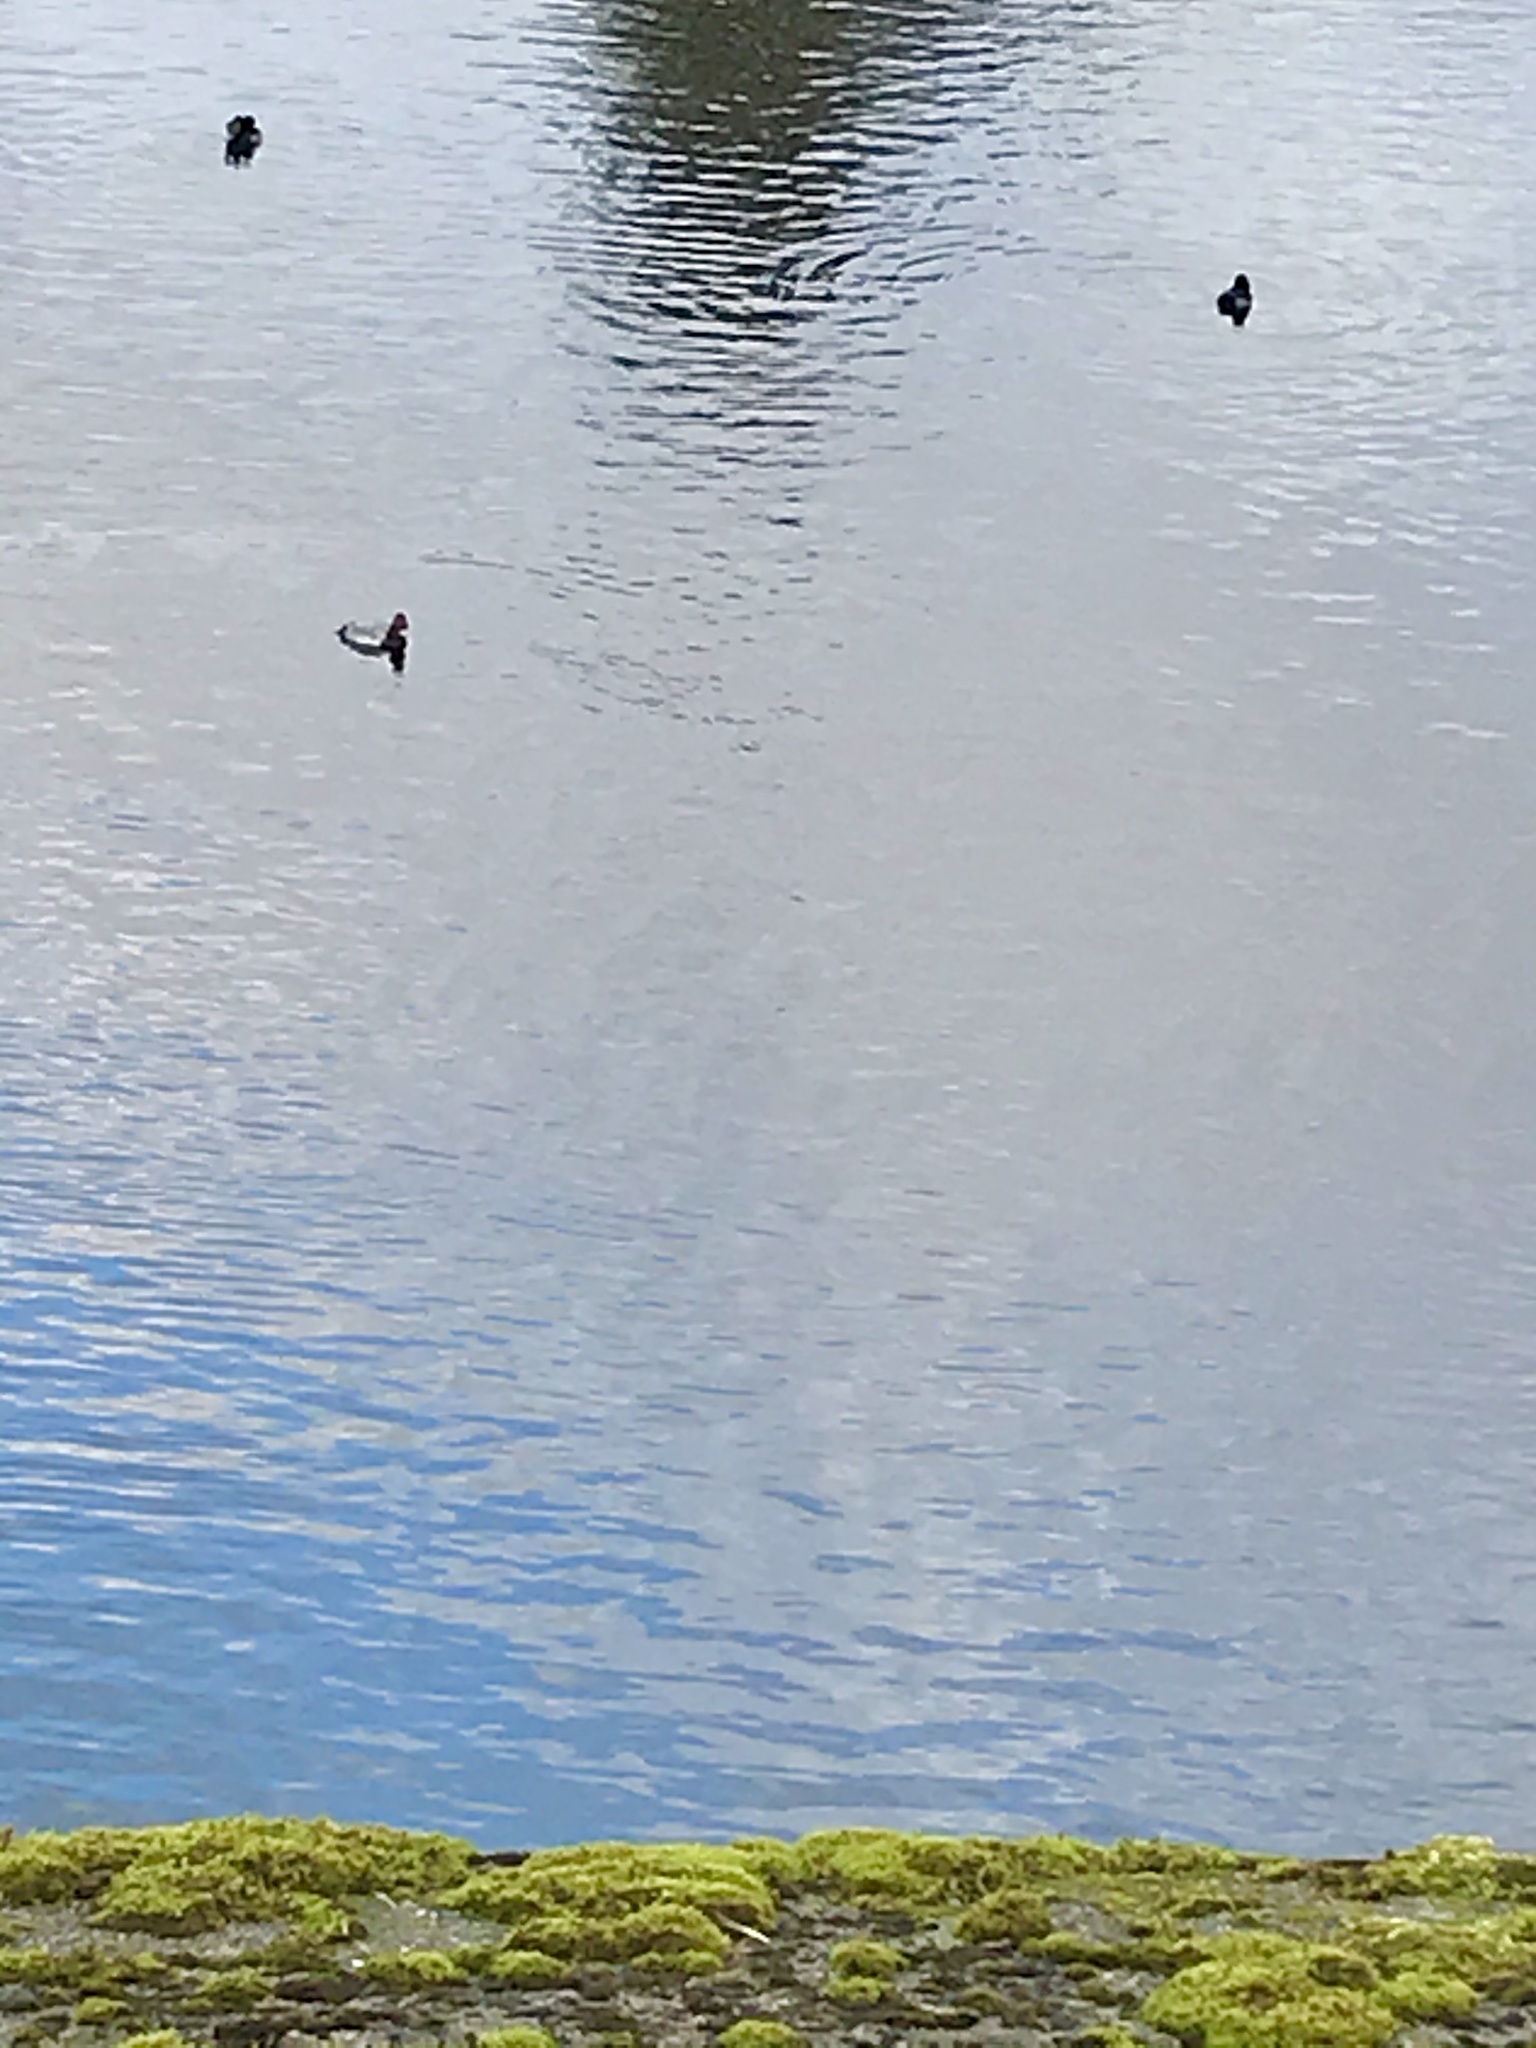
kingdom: Animalia
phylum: Chordata
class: Aves
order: Anseriformes
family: Anatidae
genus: Aythya
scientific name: Aythya ferina
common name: Common pochard
